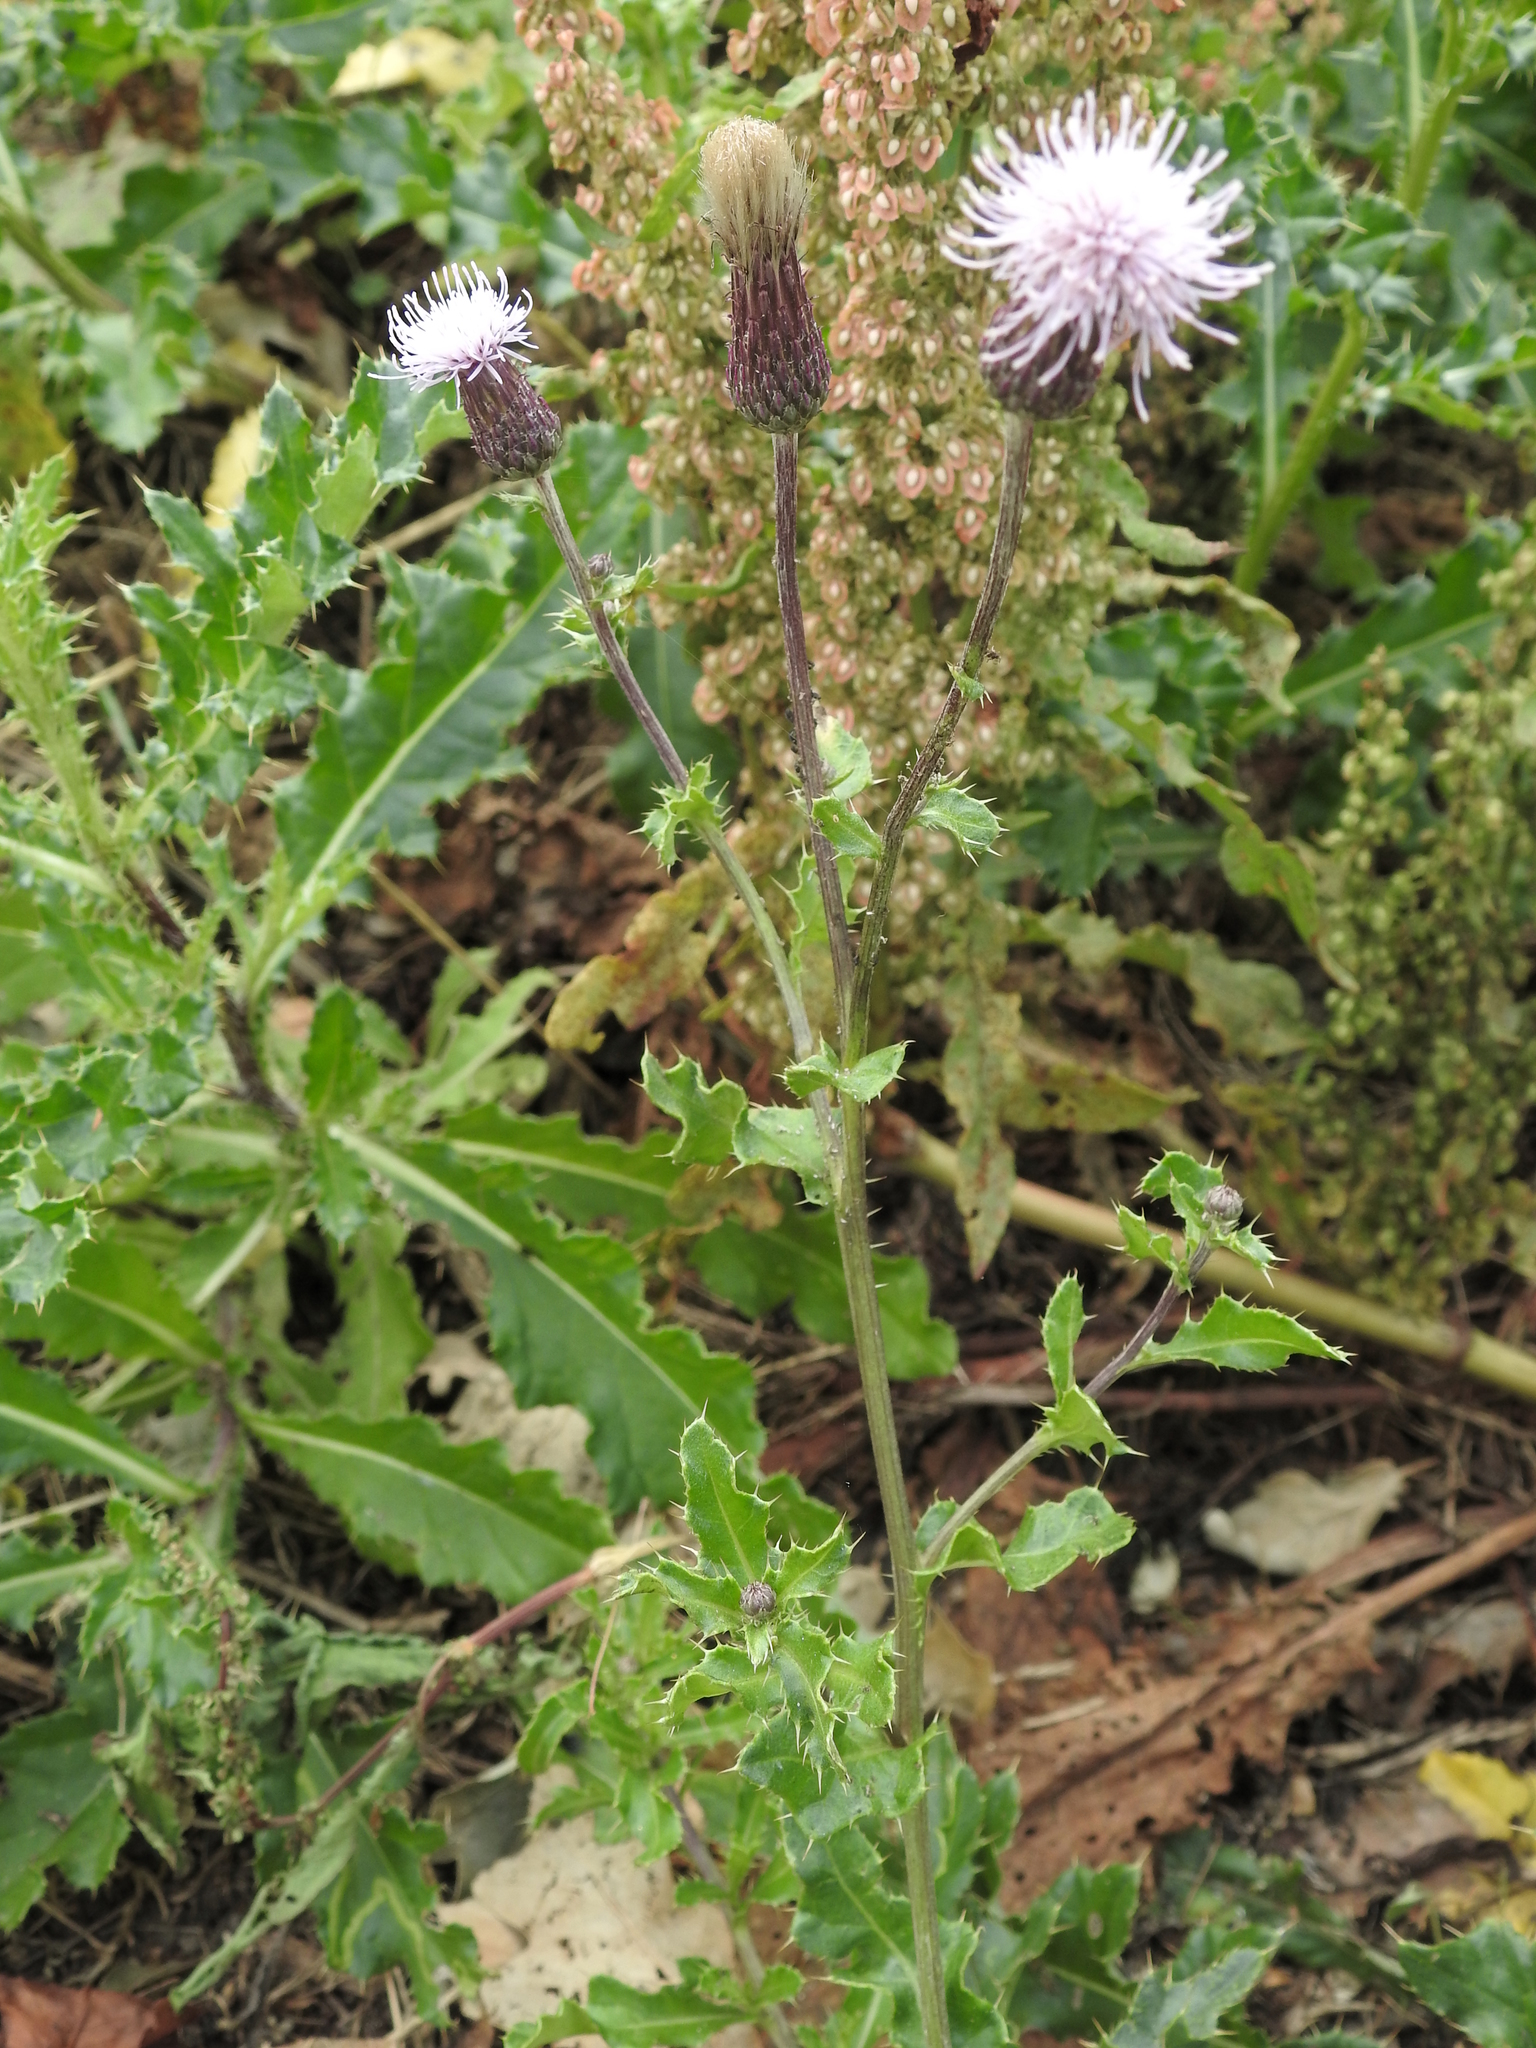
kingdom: Plantae
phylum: Tracheophyta
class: Magnoliopsida
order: Asterales
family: Asteraceae
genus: Cirsium
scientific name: Cirsium arvense
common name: Creeping thistle
